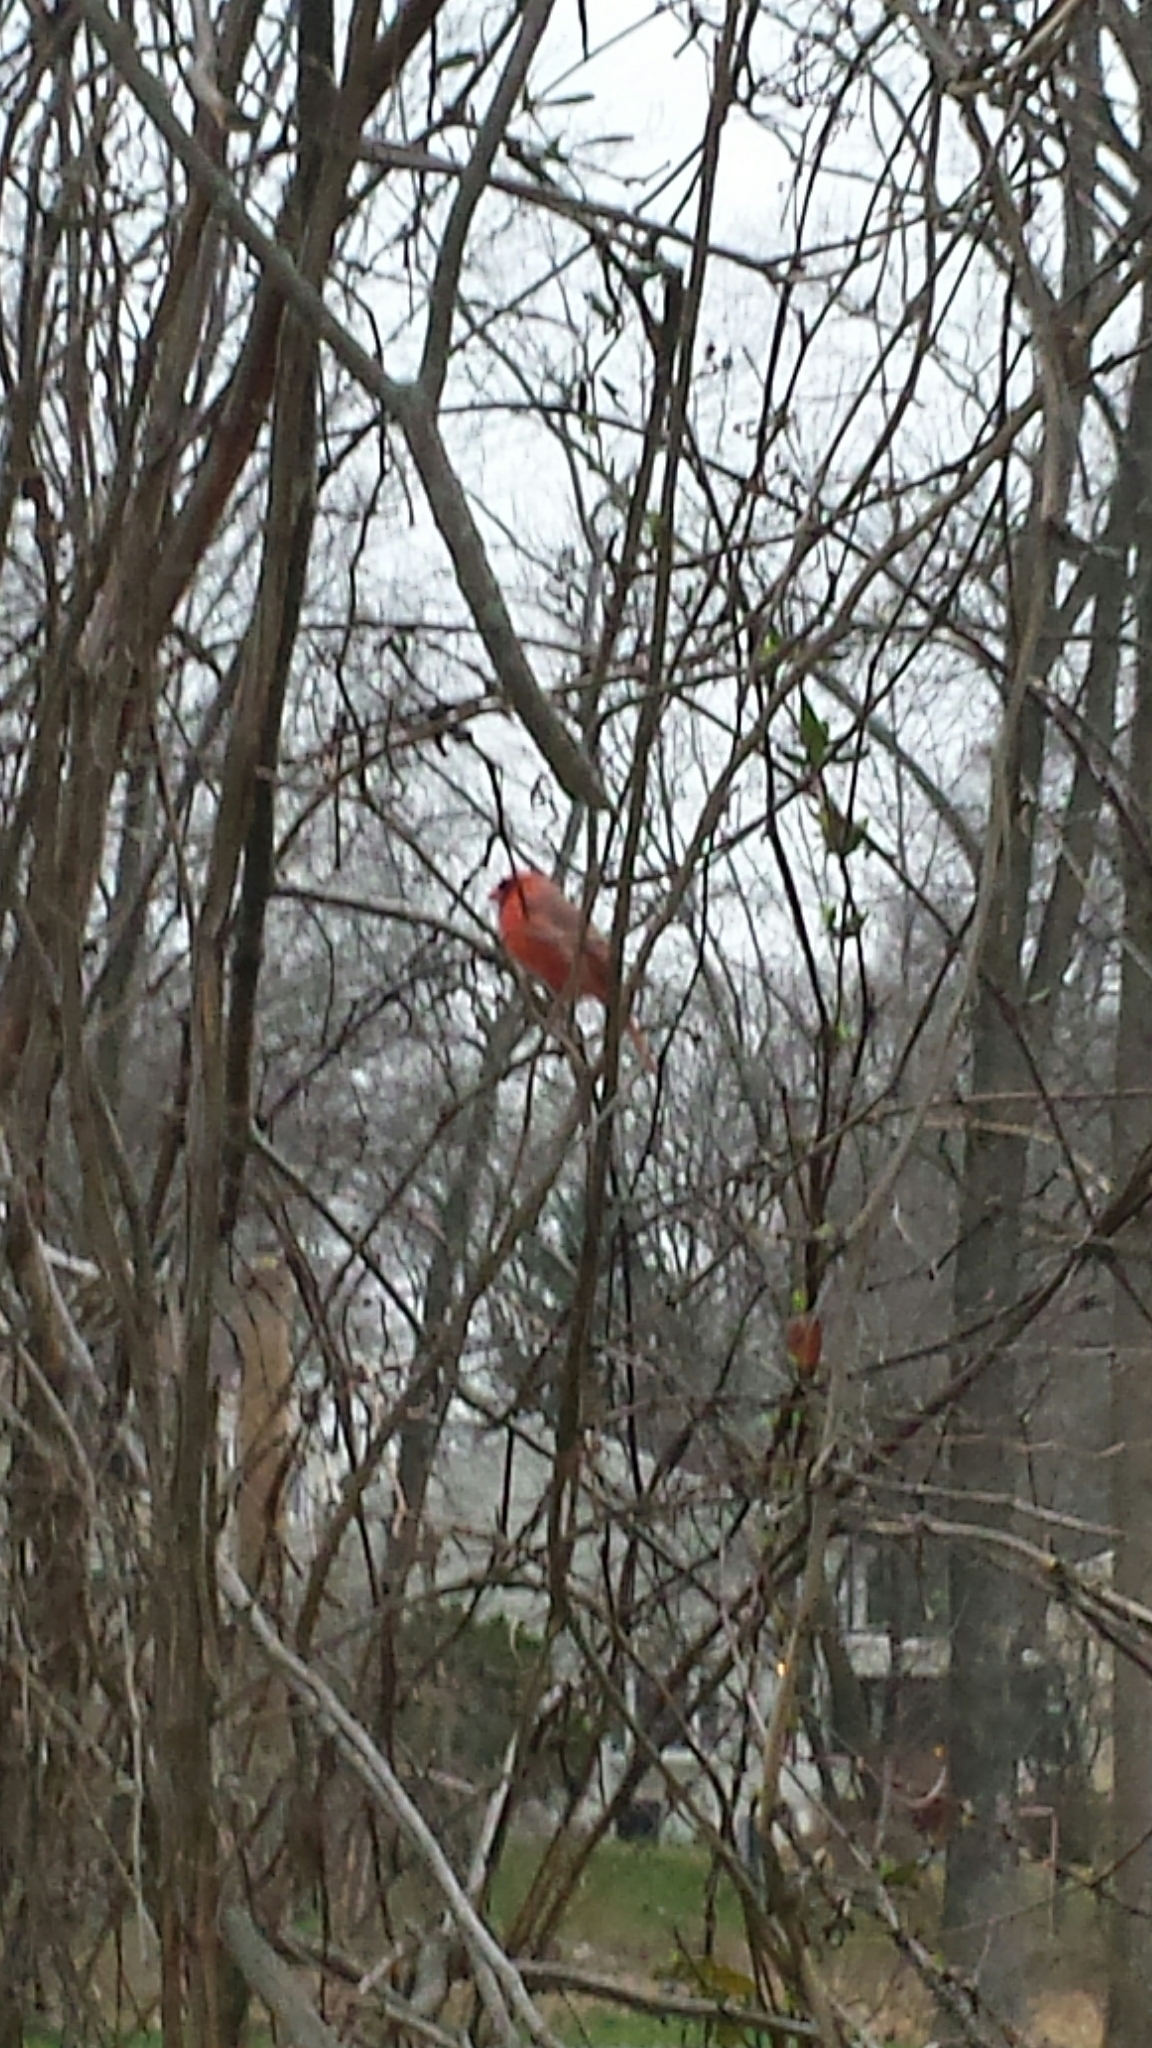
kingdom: Animalia
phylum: Chordata
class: Aves
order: Passeriformes
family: Cardinalidae
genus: Cardinalis
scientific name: Cardinalis cardinalis
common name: Northern cardinal
